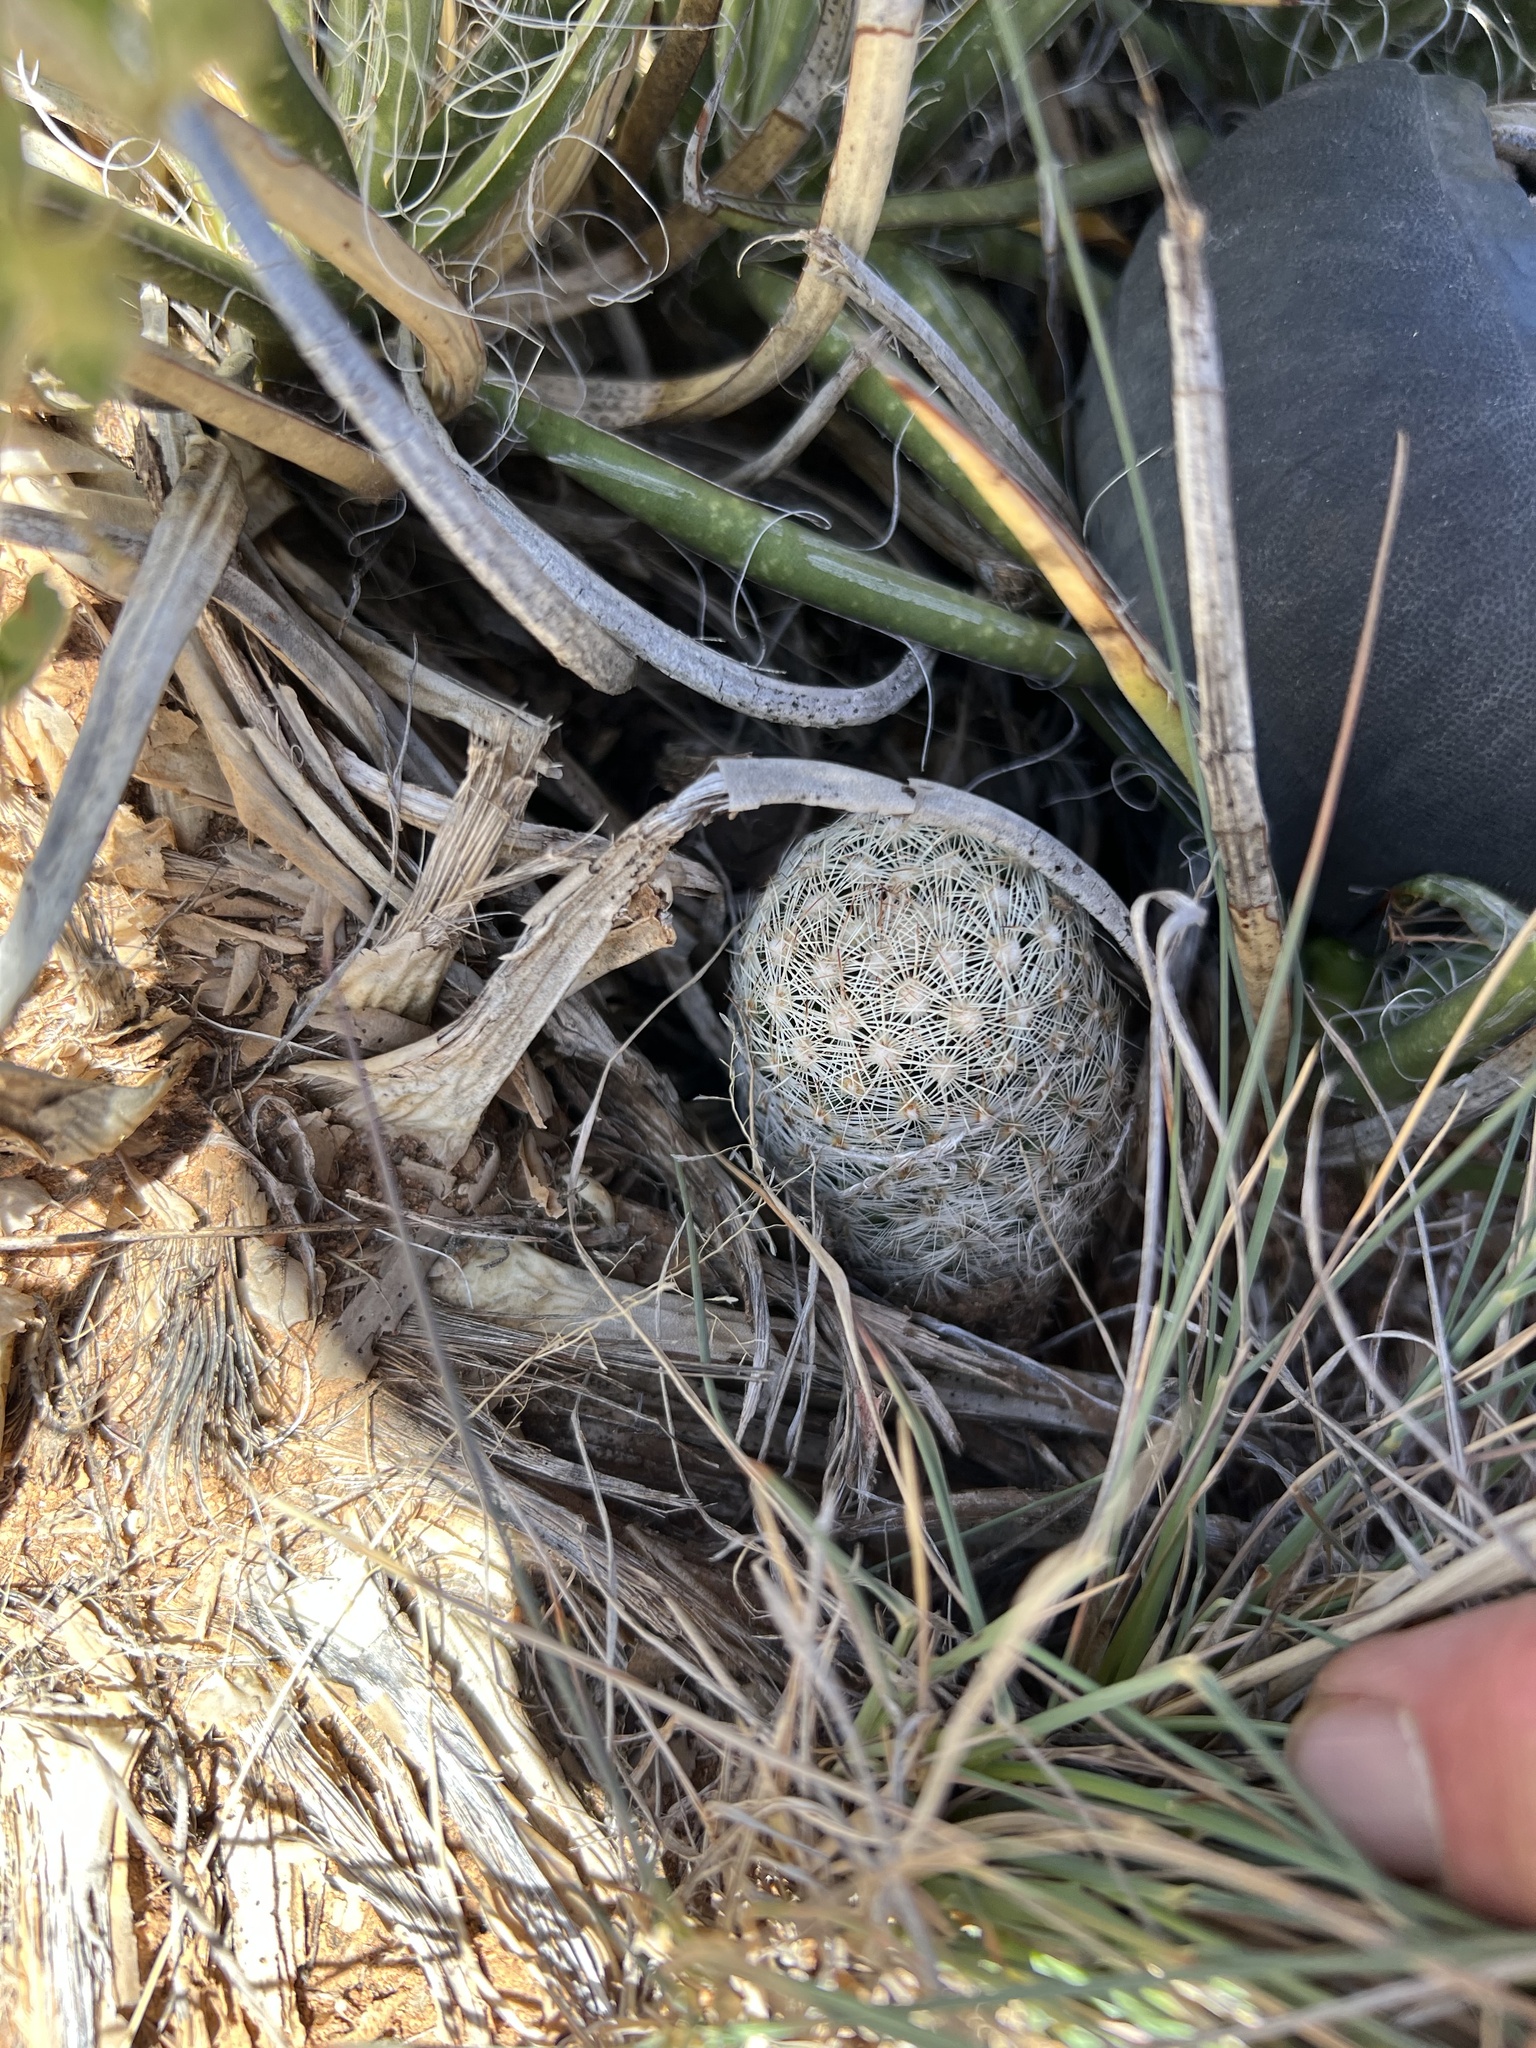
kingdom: Plantae
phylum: Tracheophyta
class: Magnoliopsida
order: Caryophyllales
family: Cactaceae
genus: Pelecyphora
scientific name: Pelecyphora vivipara
